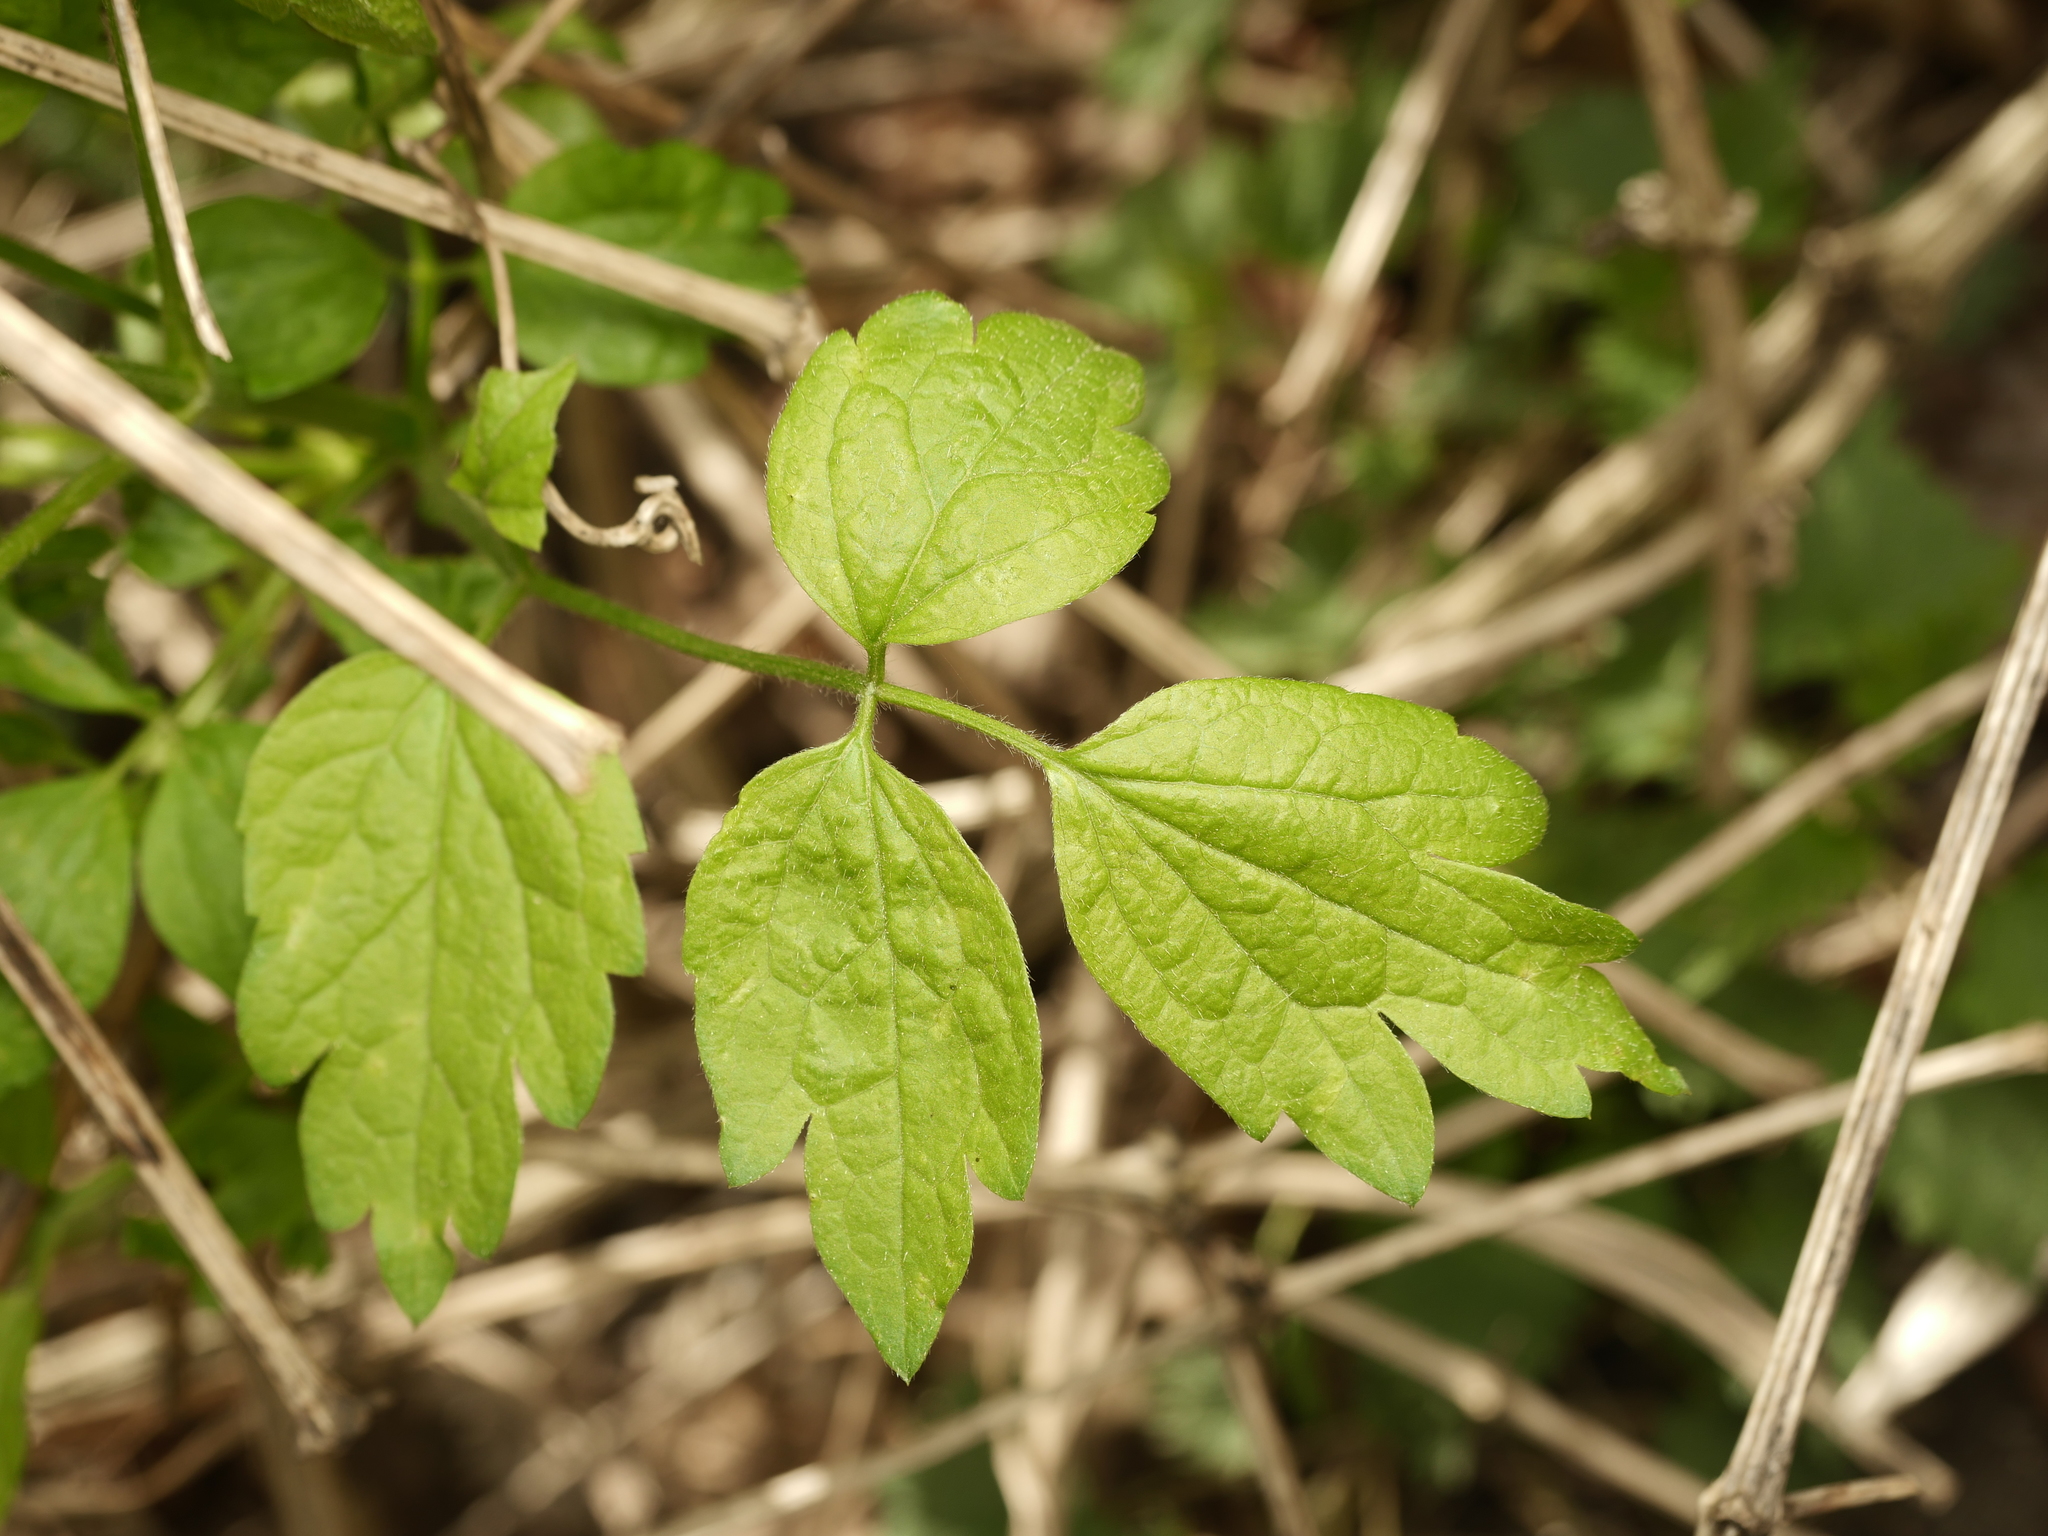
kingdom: Plantae
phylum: Tracheophyta
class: Magnoliopsida
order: Ranunculales
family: Ranunculaceae
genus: Clematis
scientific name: Clematis vitalba
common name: Evergreen clematis
